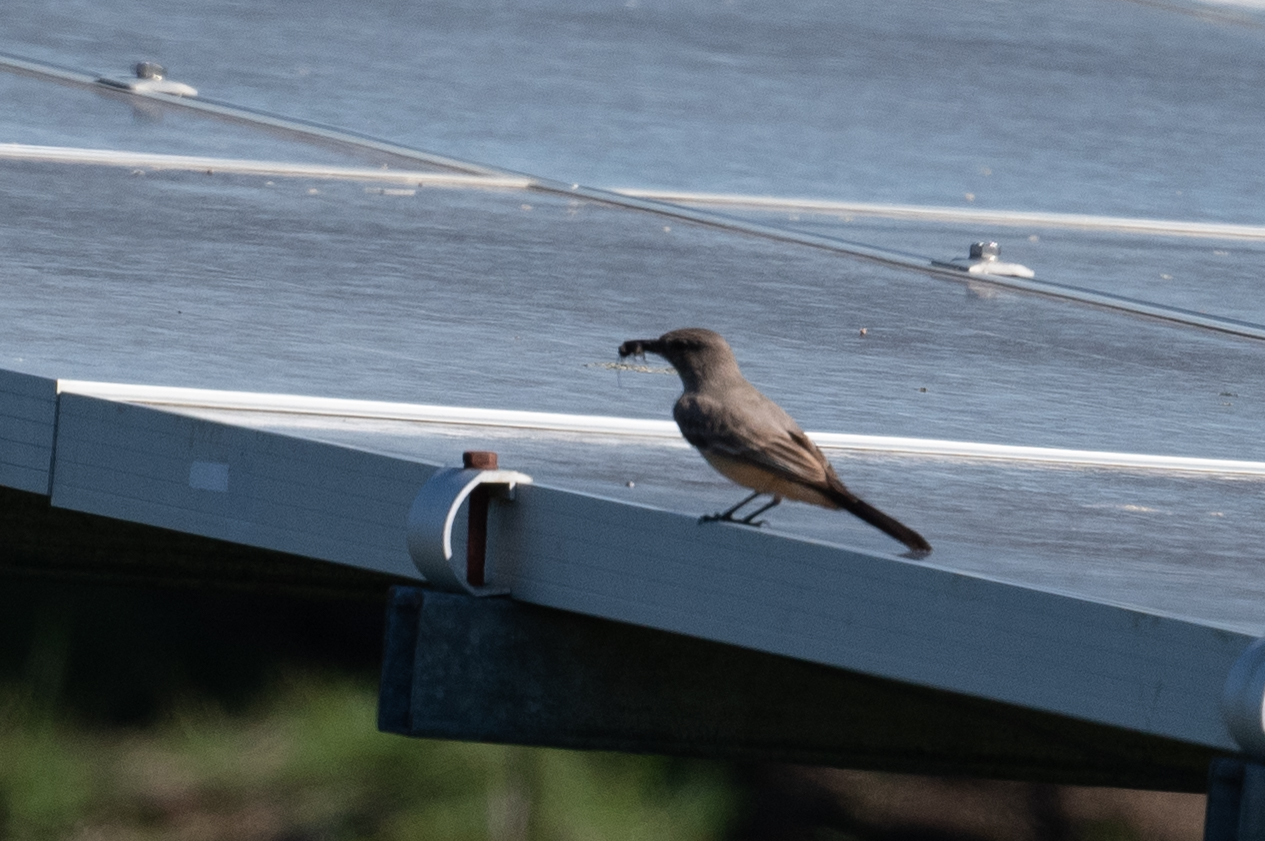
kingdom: Animalia
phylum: Chordata
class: Aves
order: Passeriformes
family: Tyrannidae
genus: Sayornis
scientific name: Sayornis saya
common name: Say's phoebe
